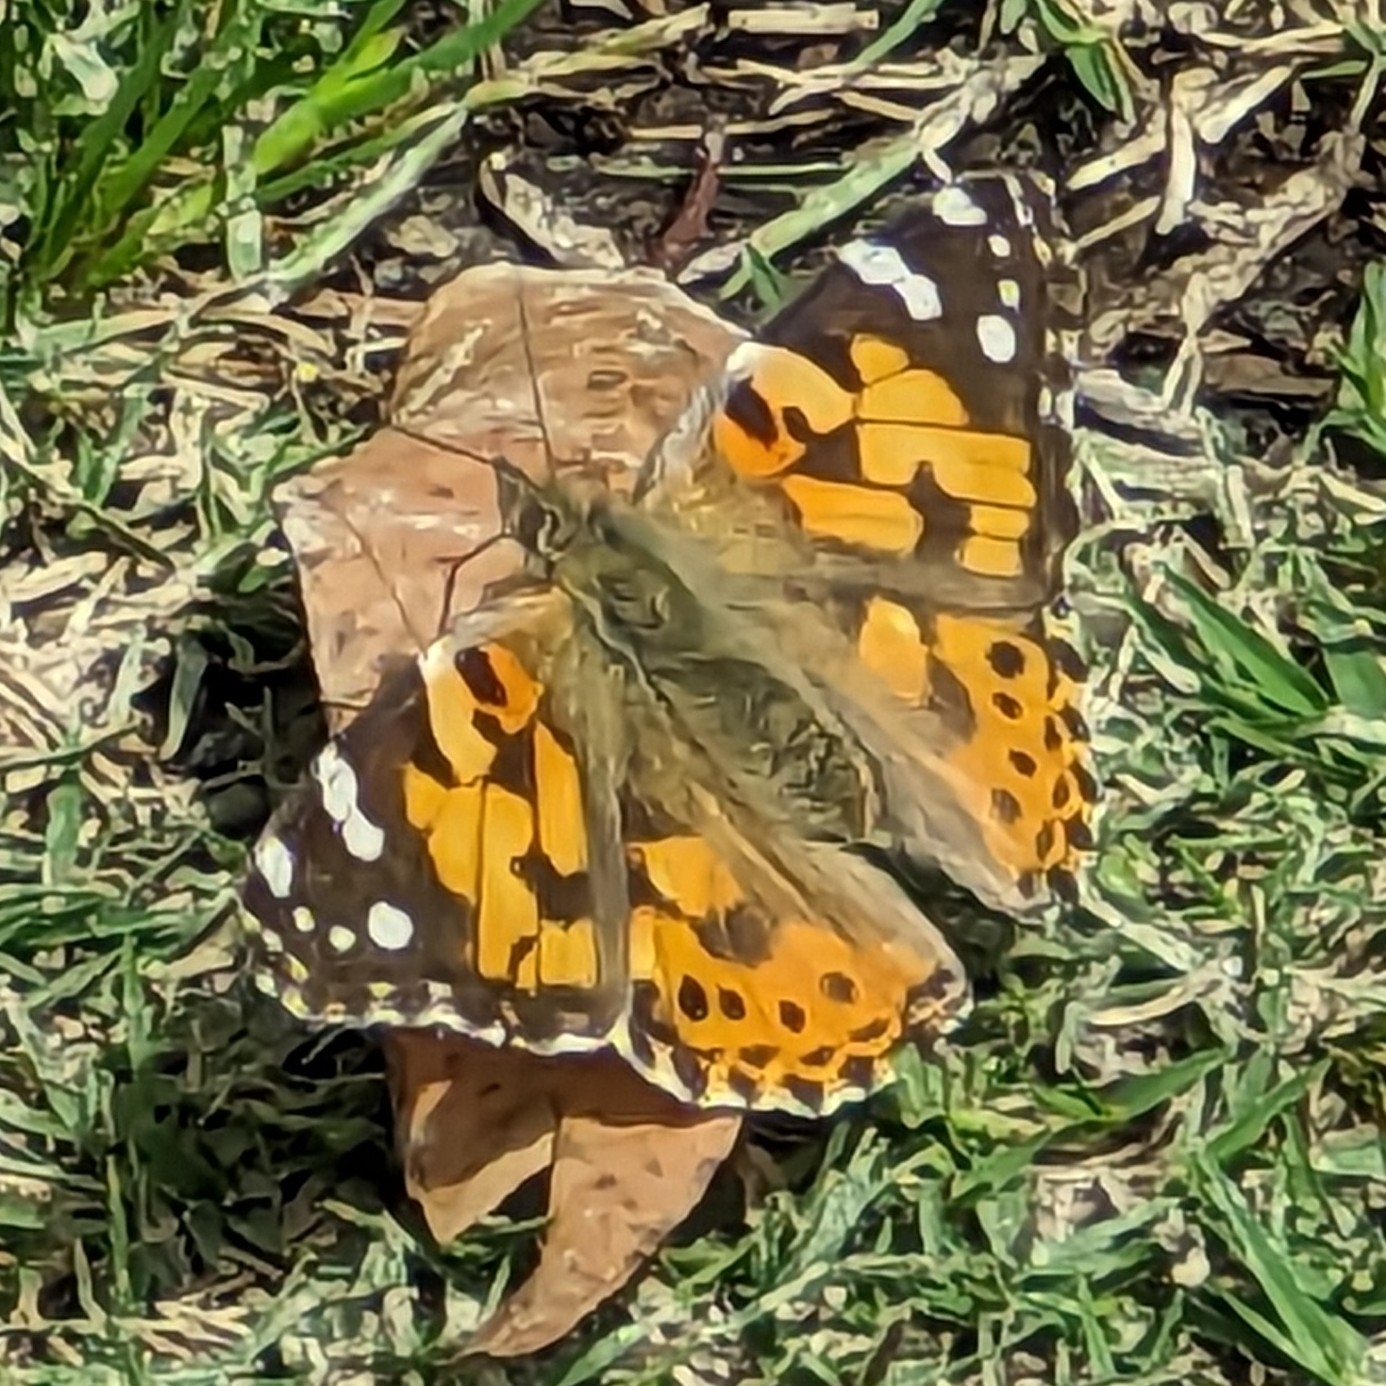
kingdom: Animalia
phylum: Arthropoda
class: Insecta
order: Lepidoptera
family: Nymphalidae
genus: Vanessa
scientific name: Vanessa cardui
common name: Painted lady
